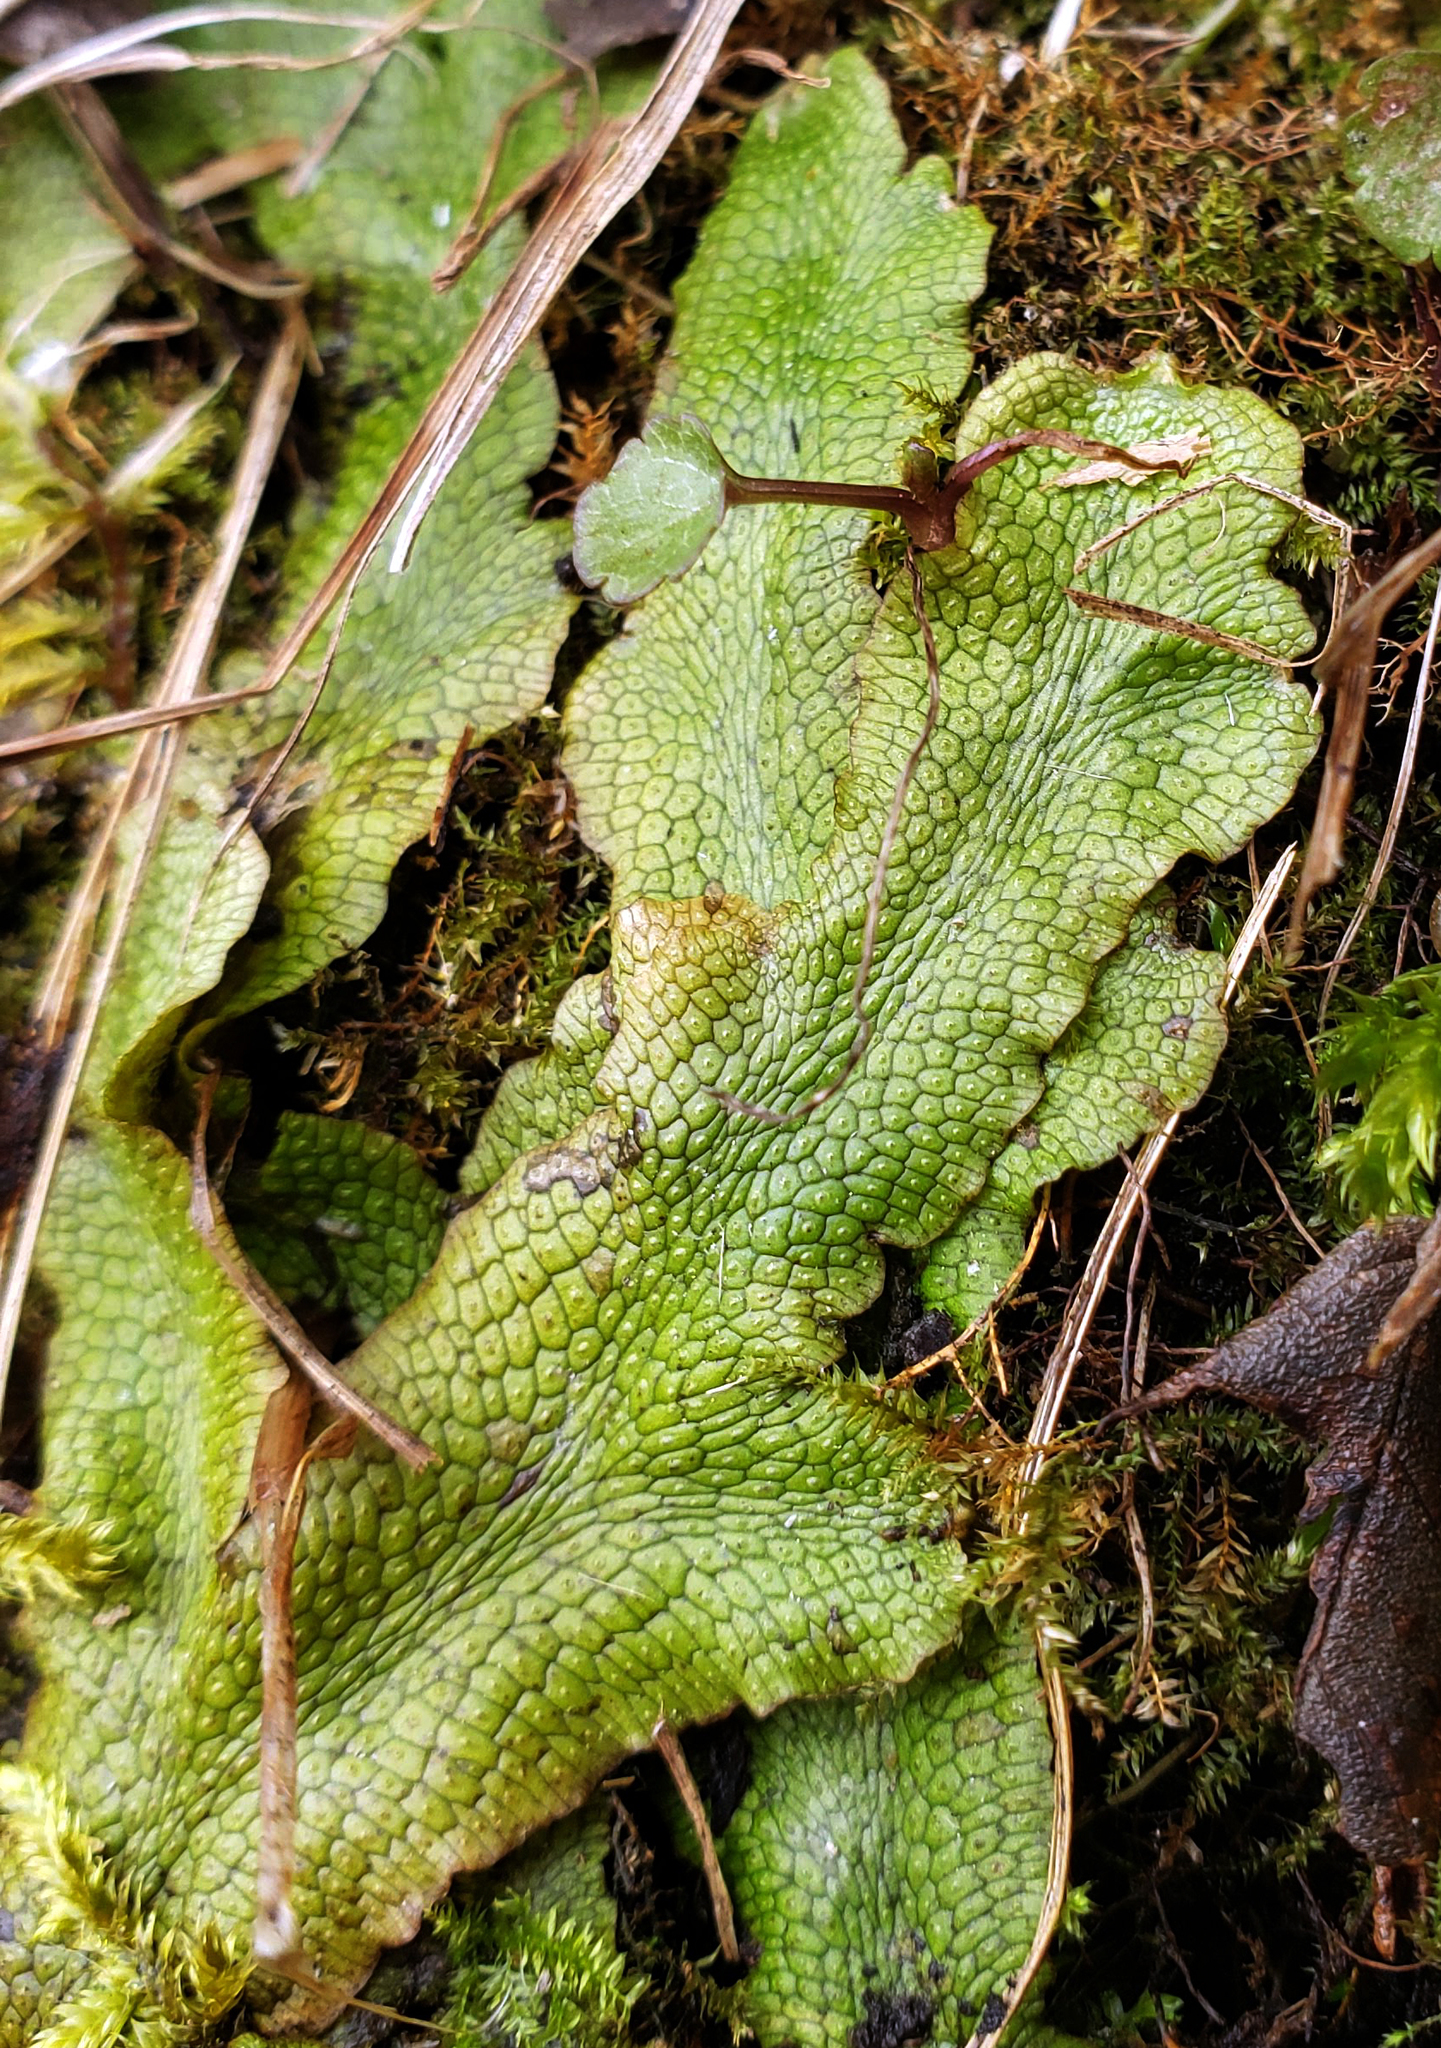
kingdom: Plantae
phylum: Marchantiophyta
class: Marchantiopsida
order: Marchantiales
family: Conocephalaceae
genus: Conocephalum
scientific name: Conocephalum salebrosum
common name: Cat-tongue liverwort
